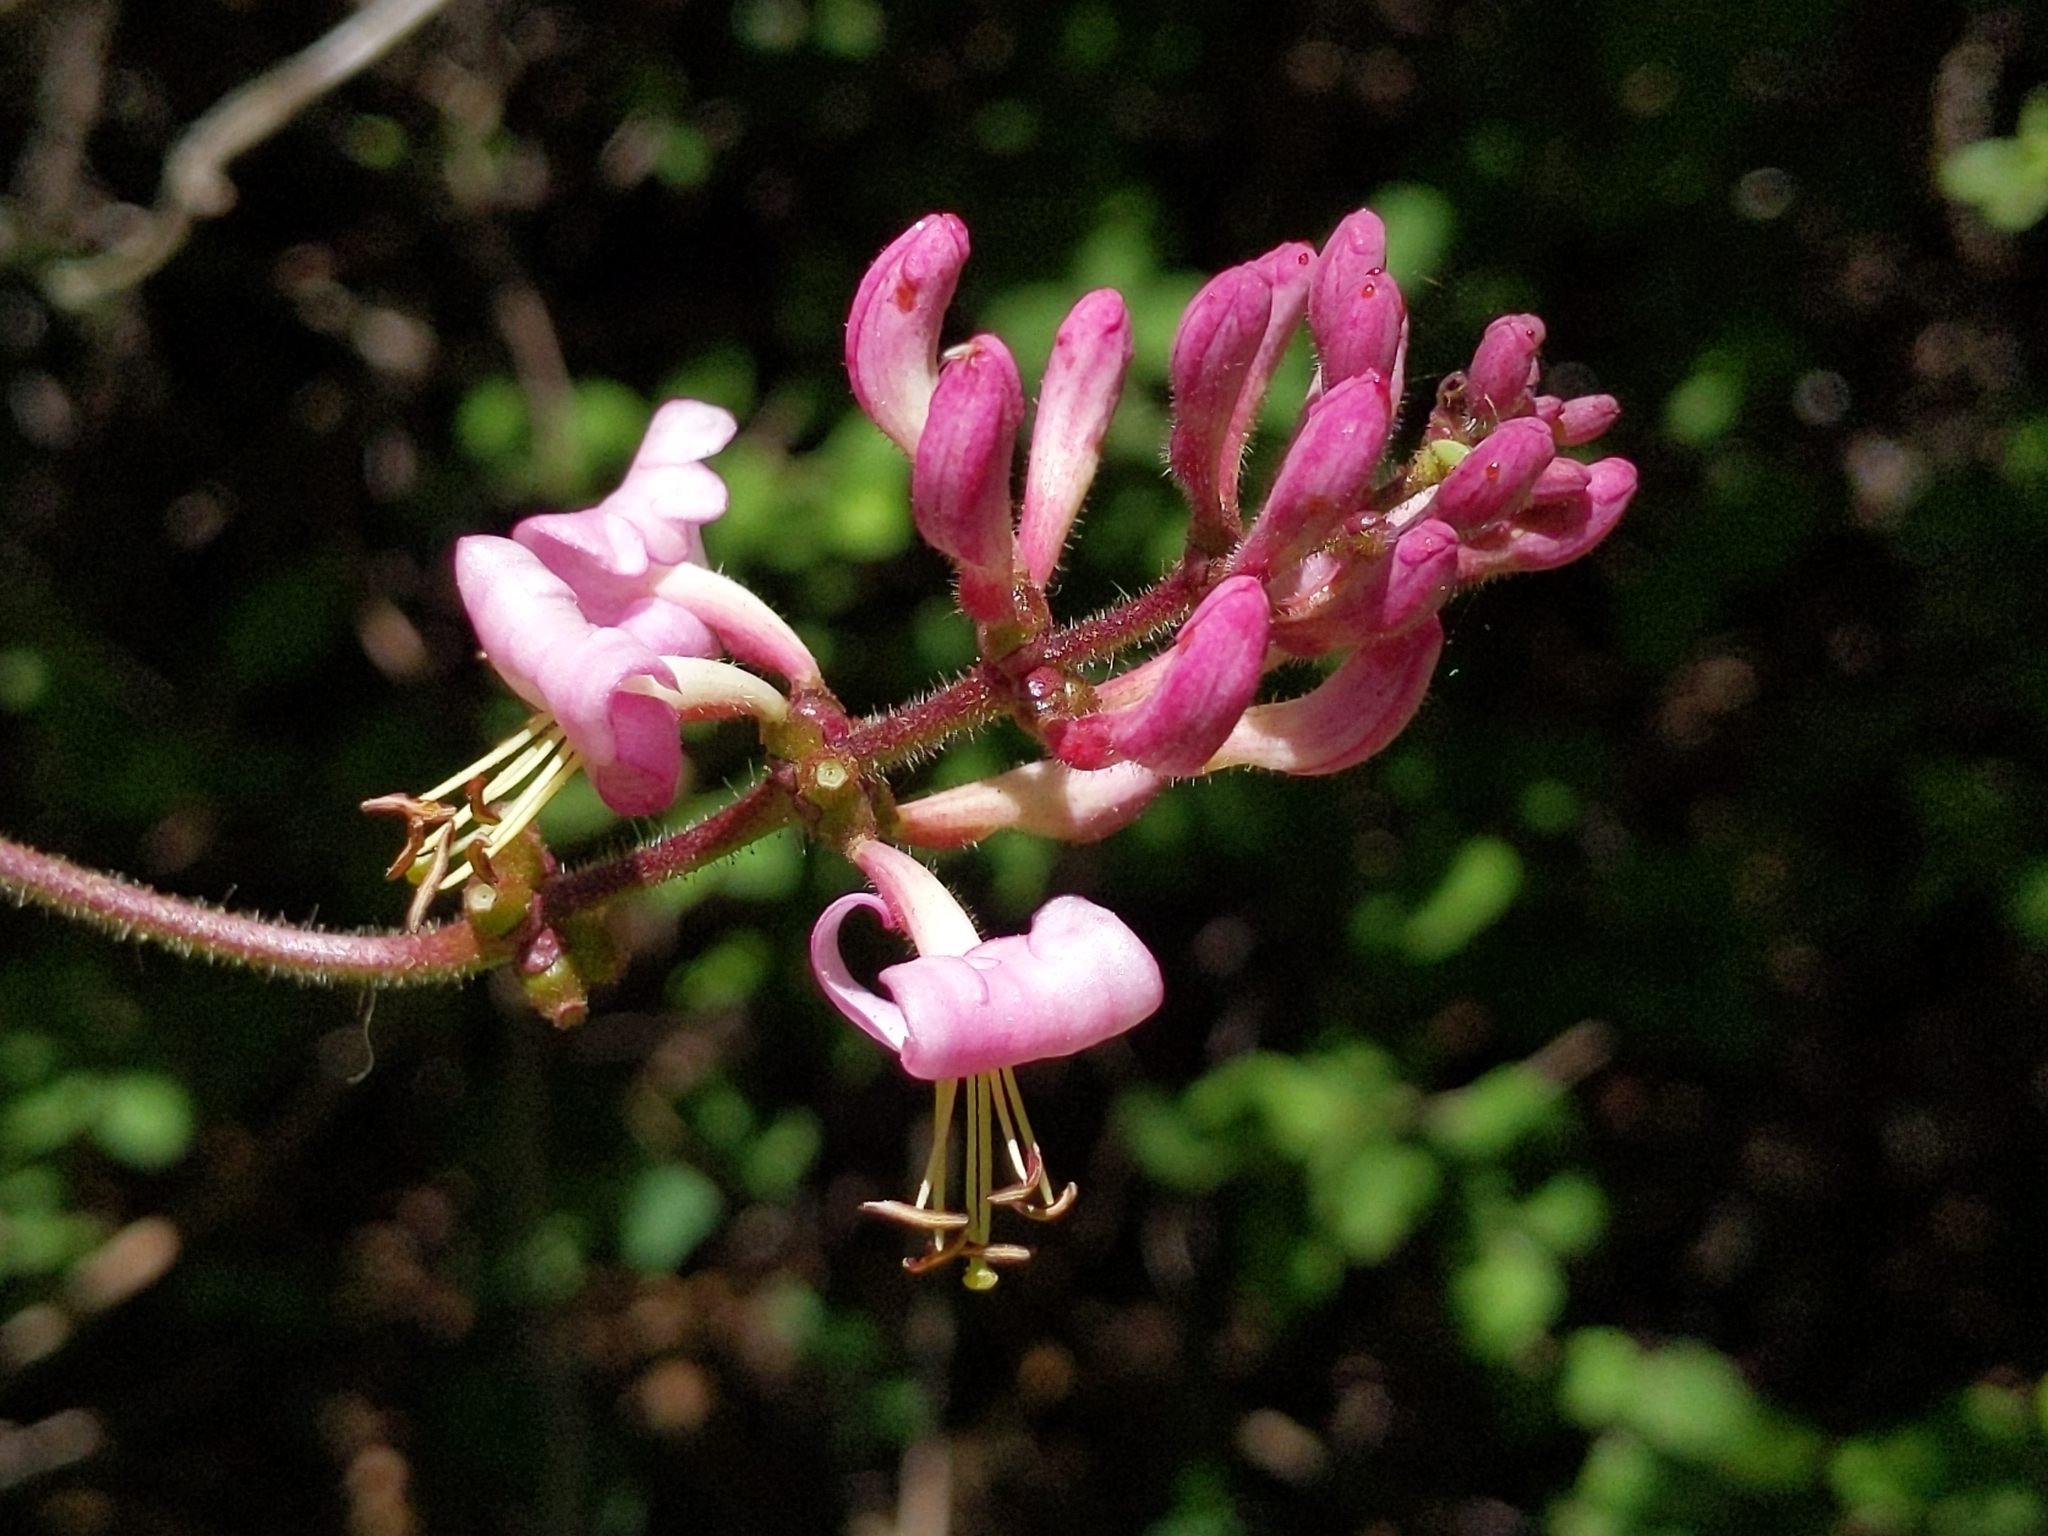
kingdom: Plantae
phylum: Tracheophyta
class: Magnoliopsida
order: Dipsacales
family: Caprifoliaceae
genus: Lonicera
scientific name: Lonicera hispidula
